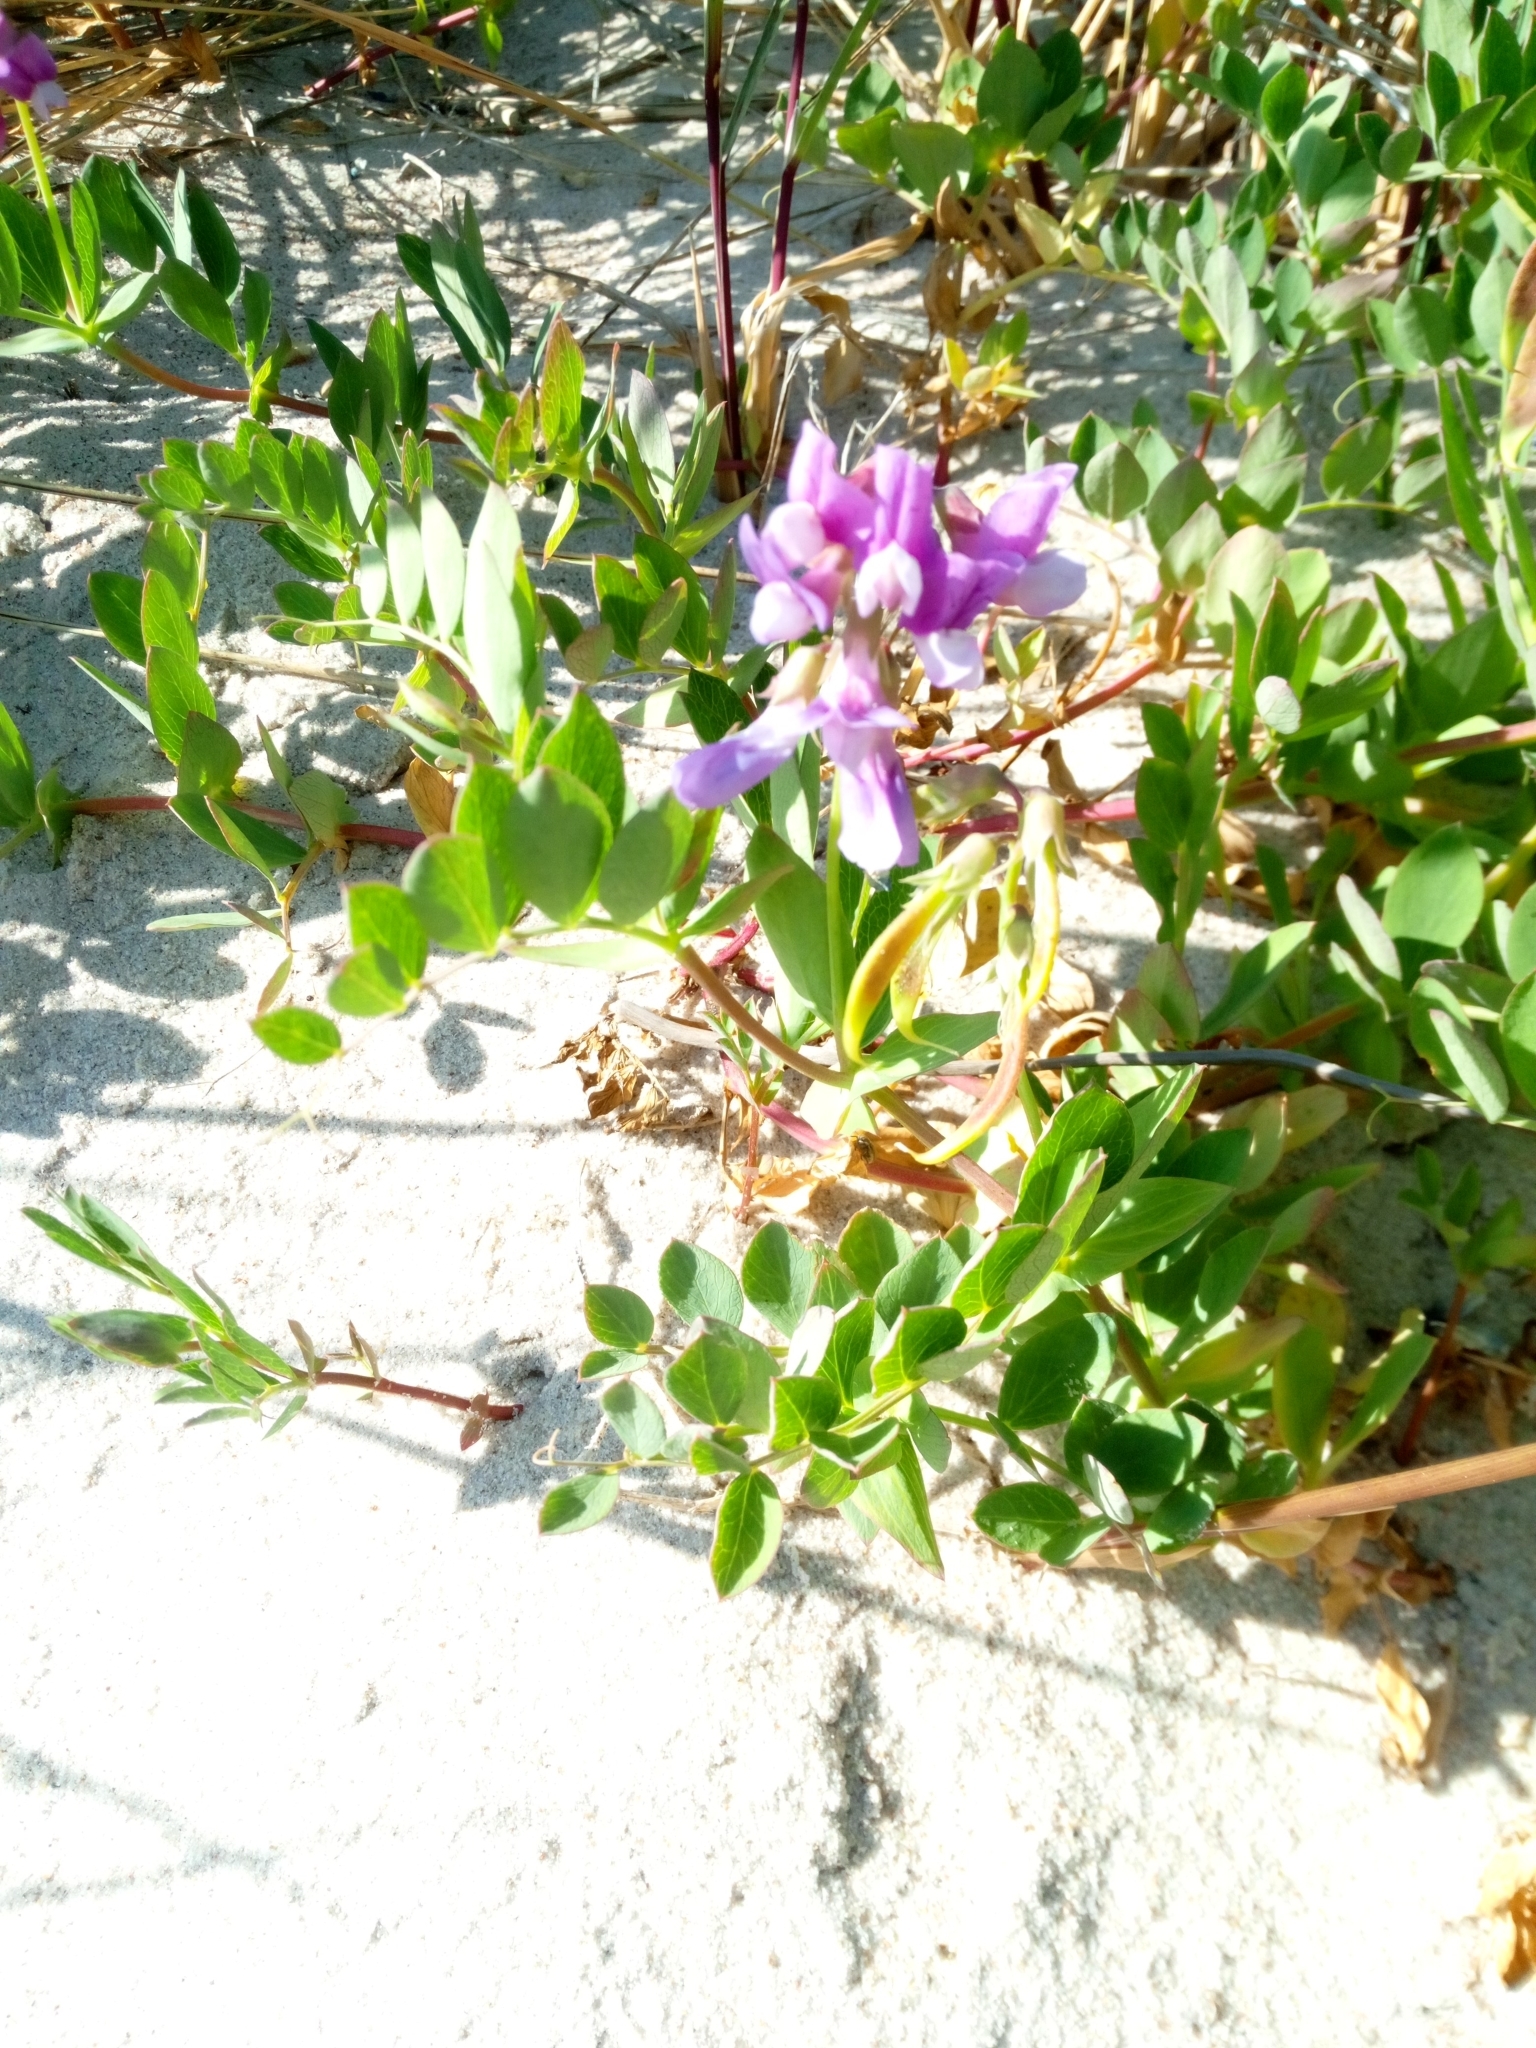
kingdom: Plantae
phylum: Tracheophyta
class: Magnoliopsida
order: Fabales
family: Fabaceae
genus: Lathyrus
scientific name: Lathyrus japonicus
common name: Sea pea
